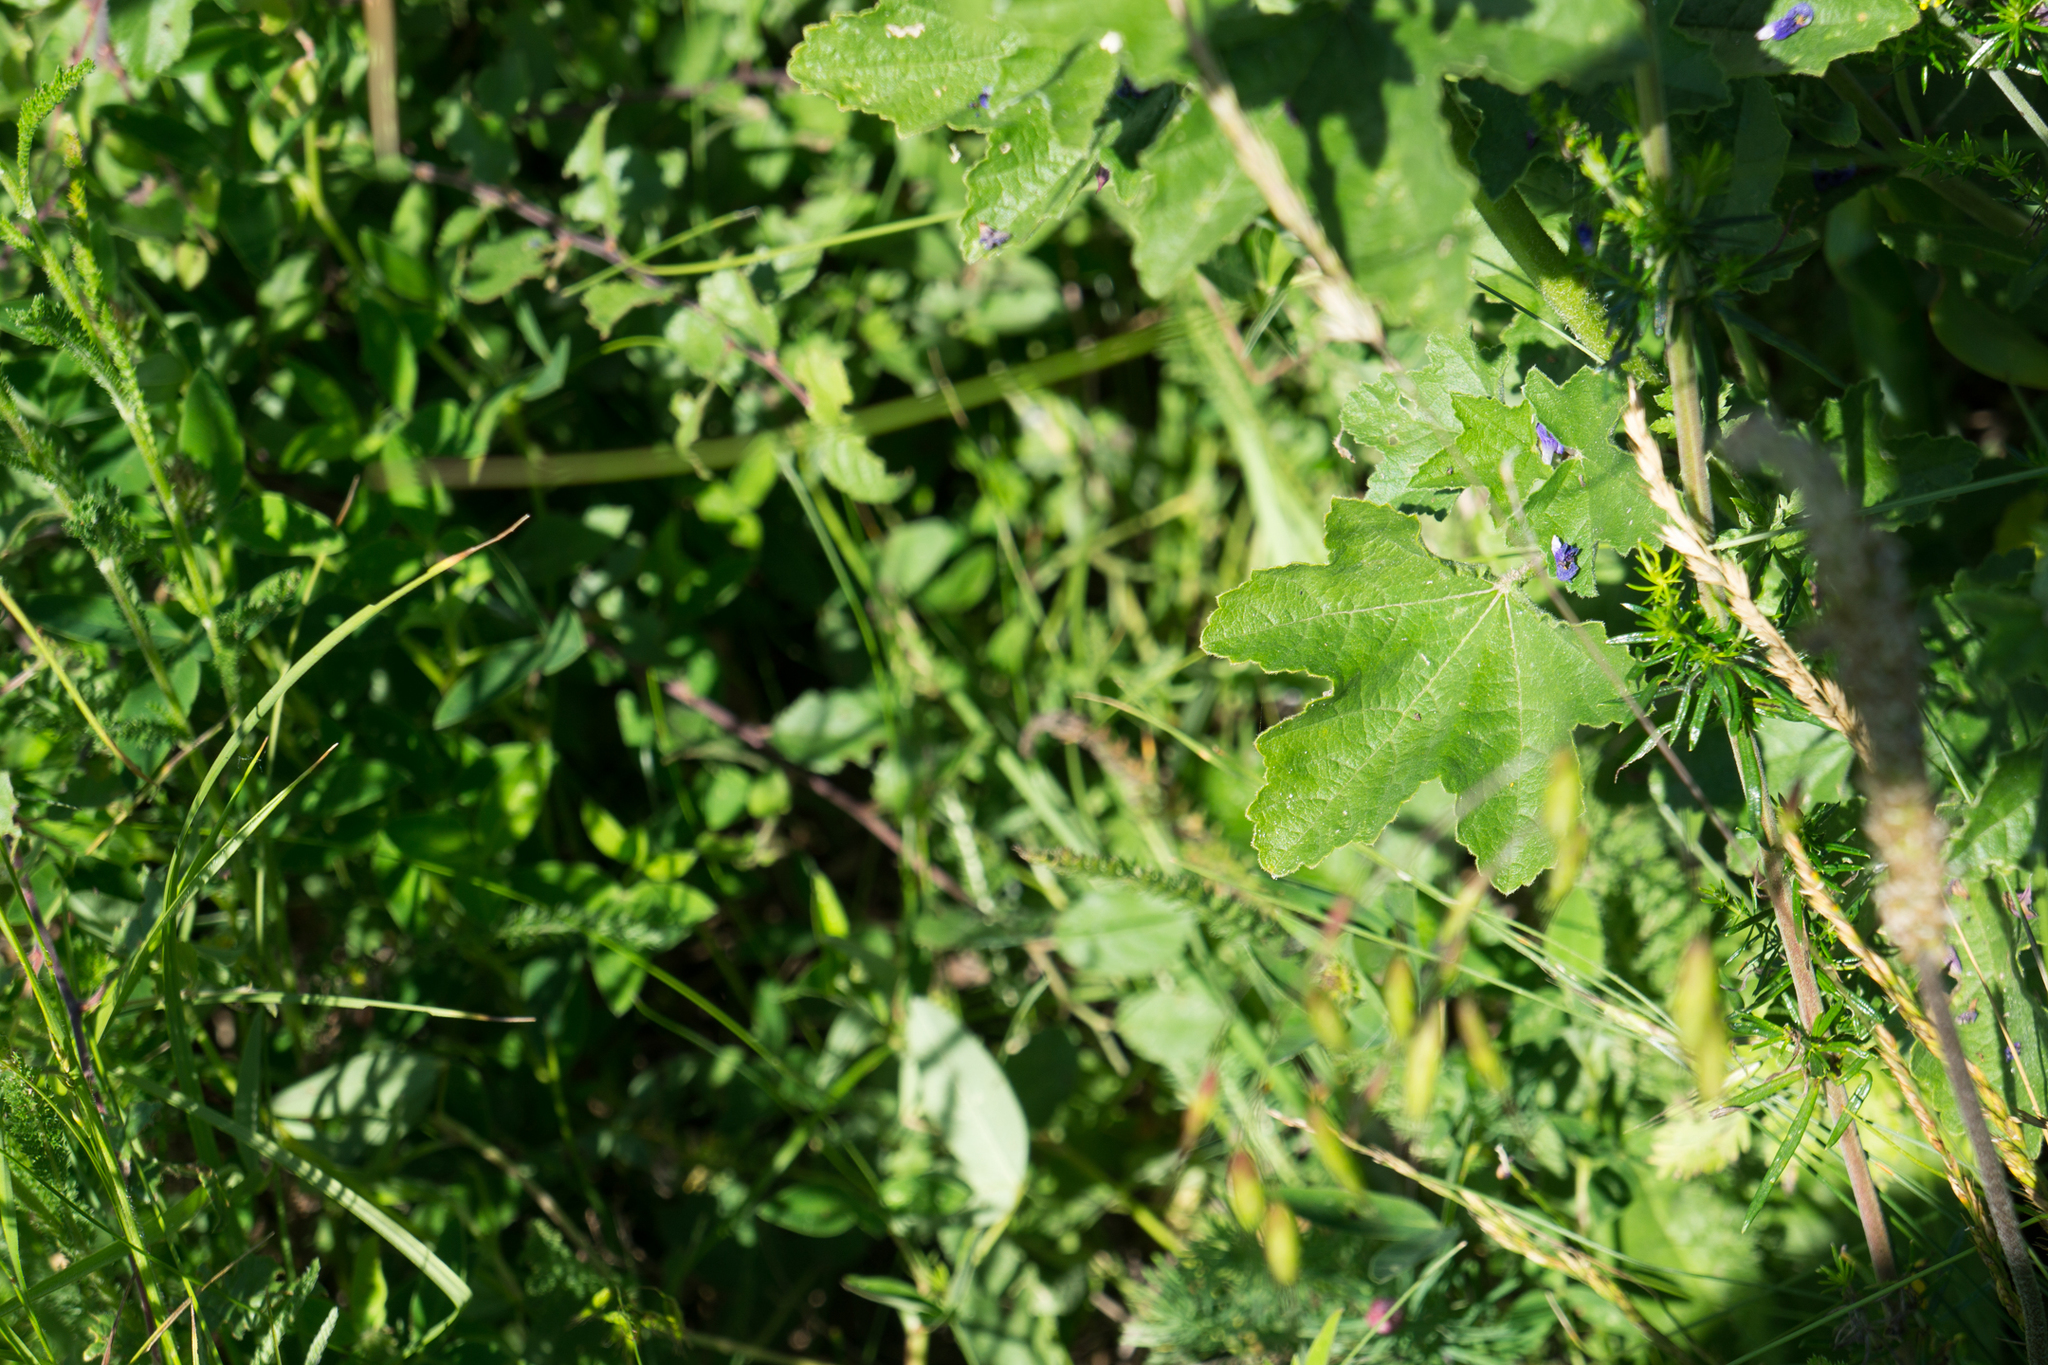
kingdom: Plantae
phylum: Tracheophyta
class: Magnoliopsida
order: Malvales
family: Malvaceae
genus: Malva
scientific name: Malva thuringiaca
